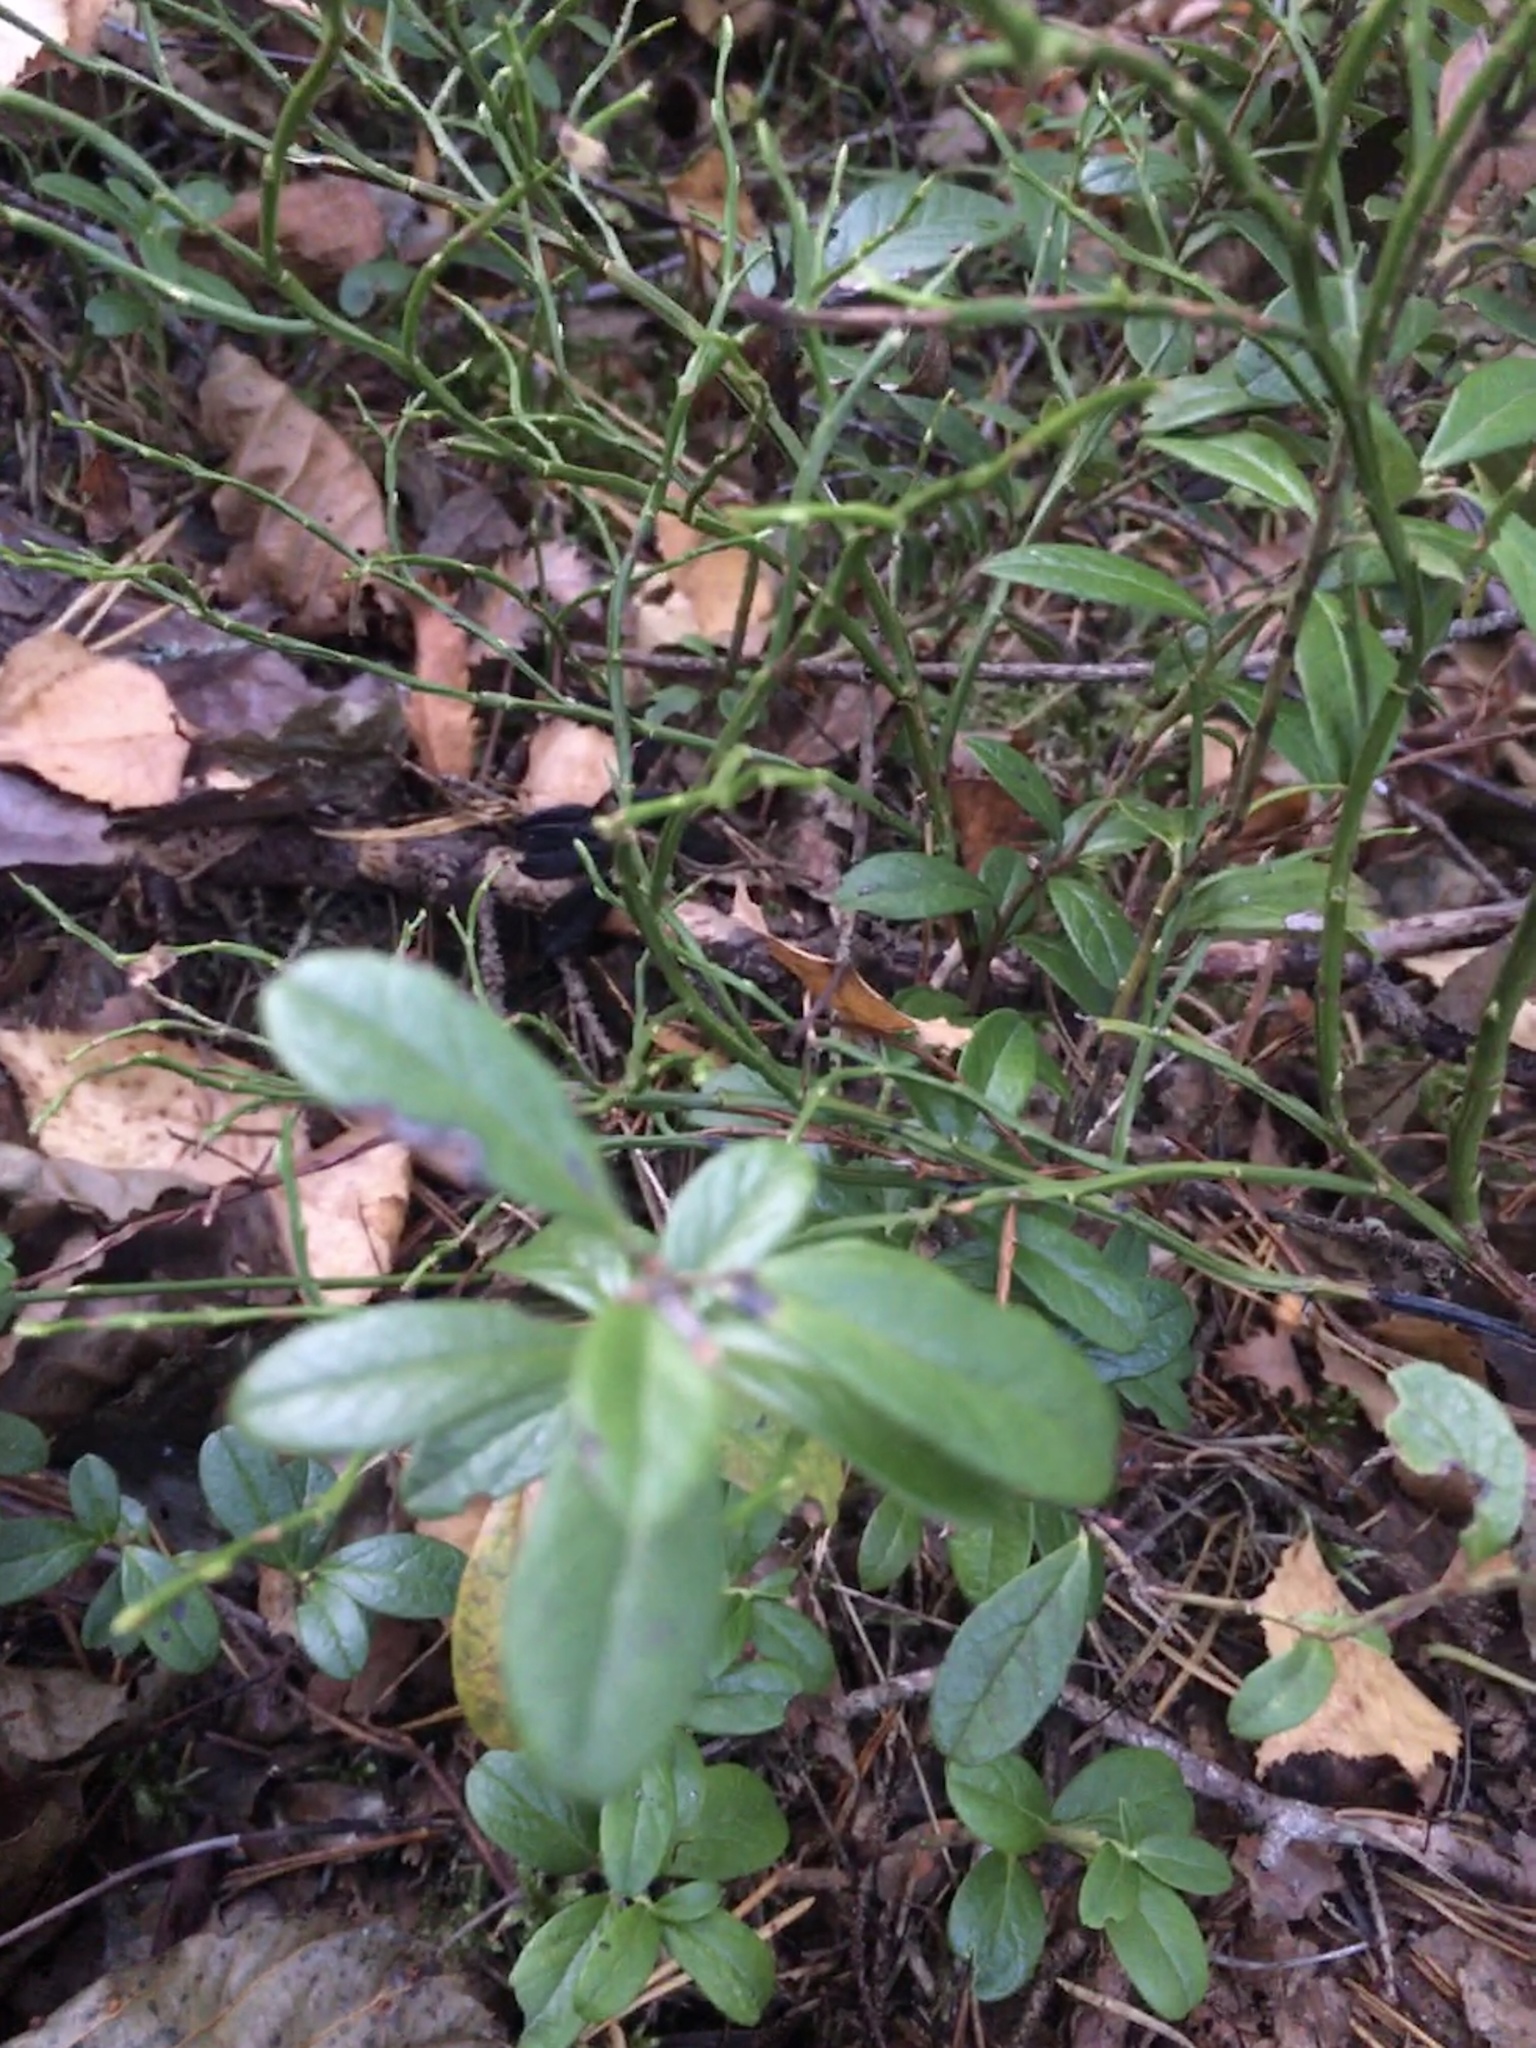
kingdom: Plantae
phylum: Tracheophyta
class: Magnoliopsida
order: Ericales
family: Ericaceae
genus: Vaccinium
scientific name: Vaccinium vitis-idaea
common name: Cowberry
